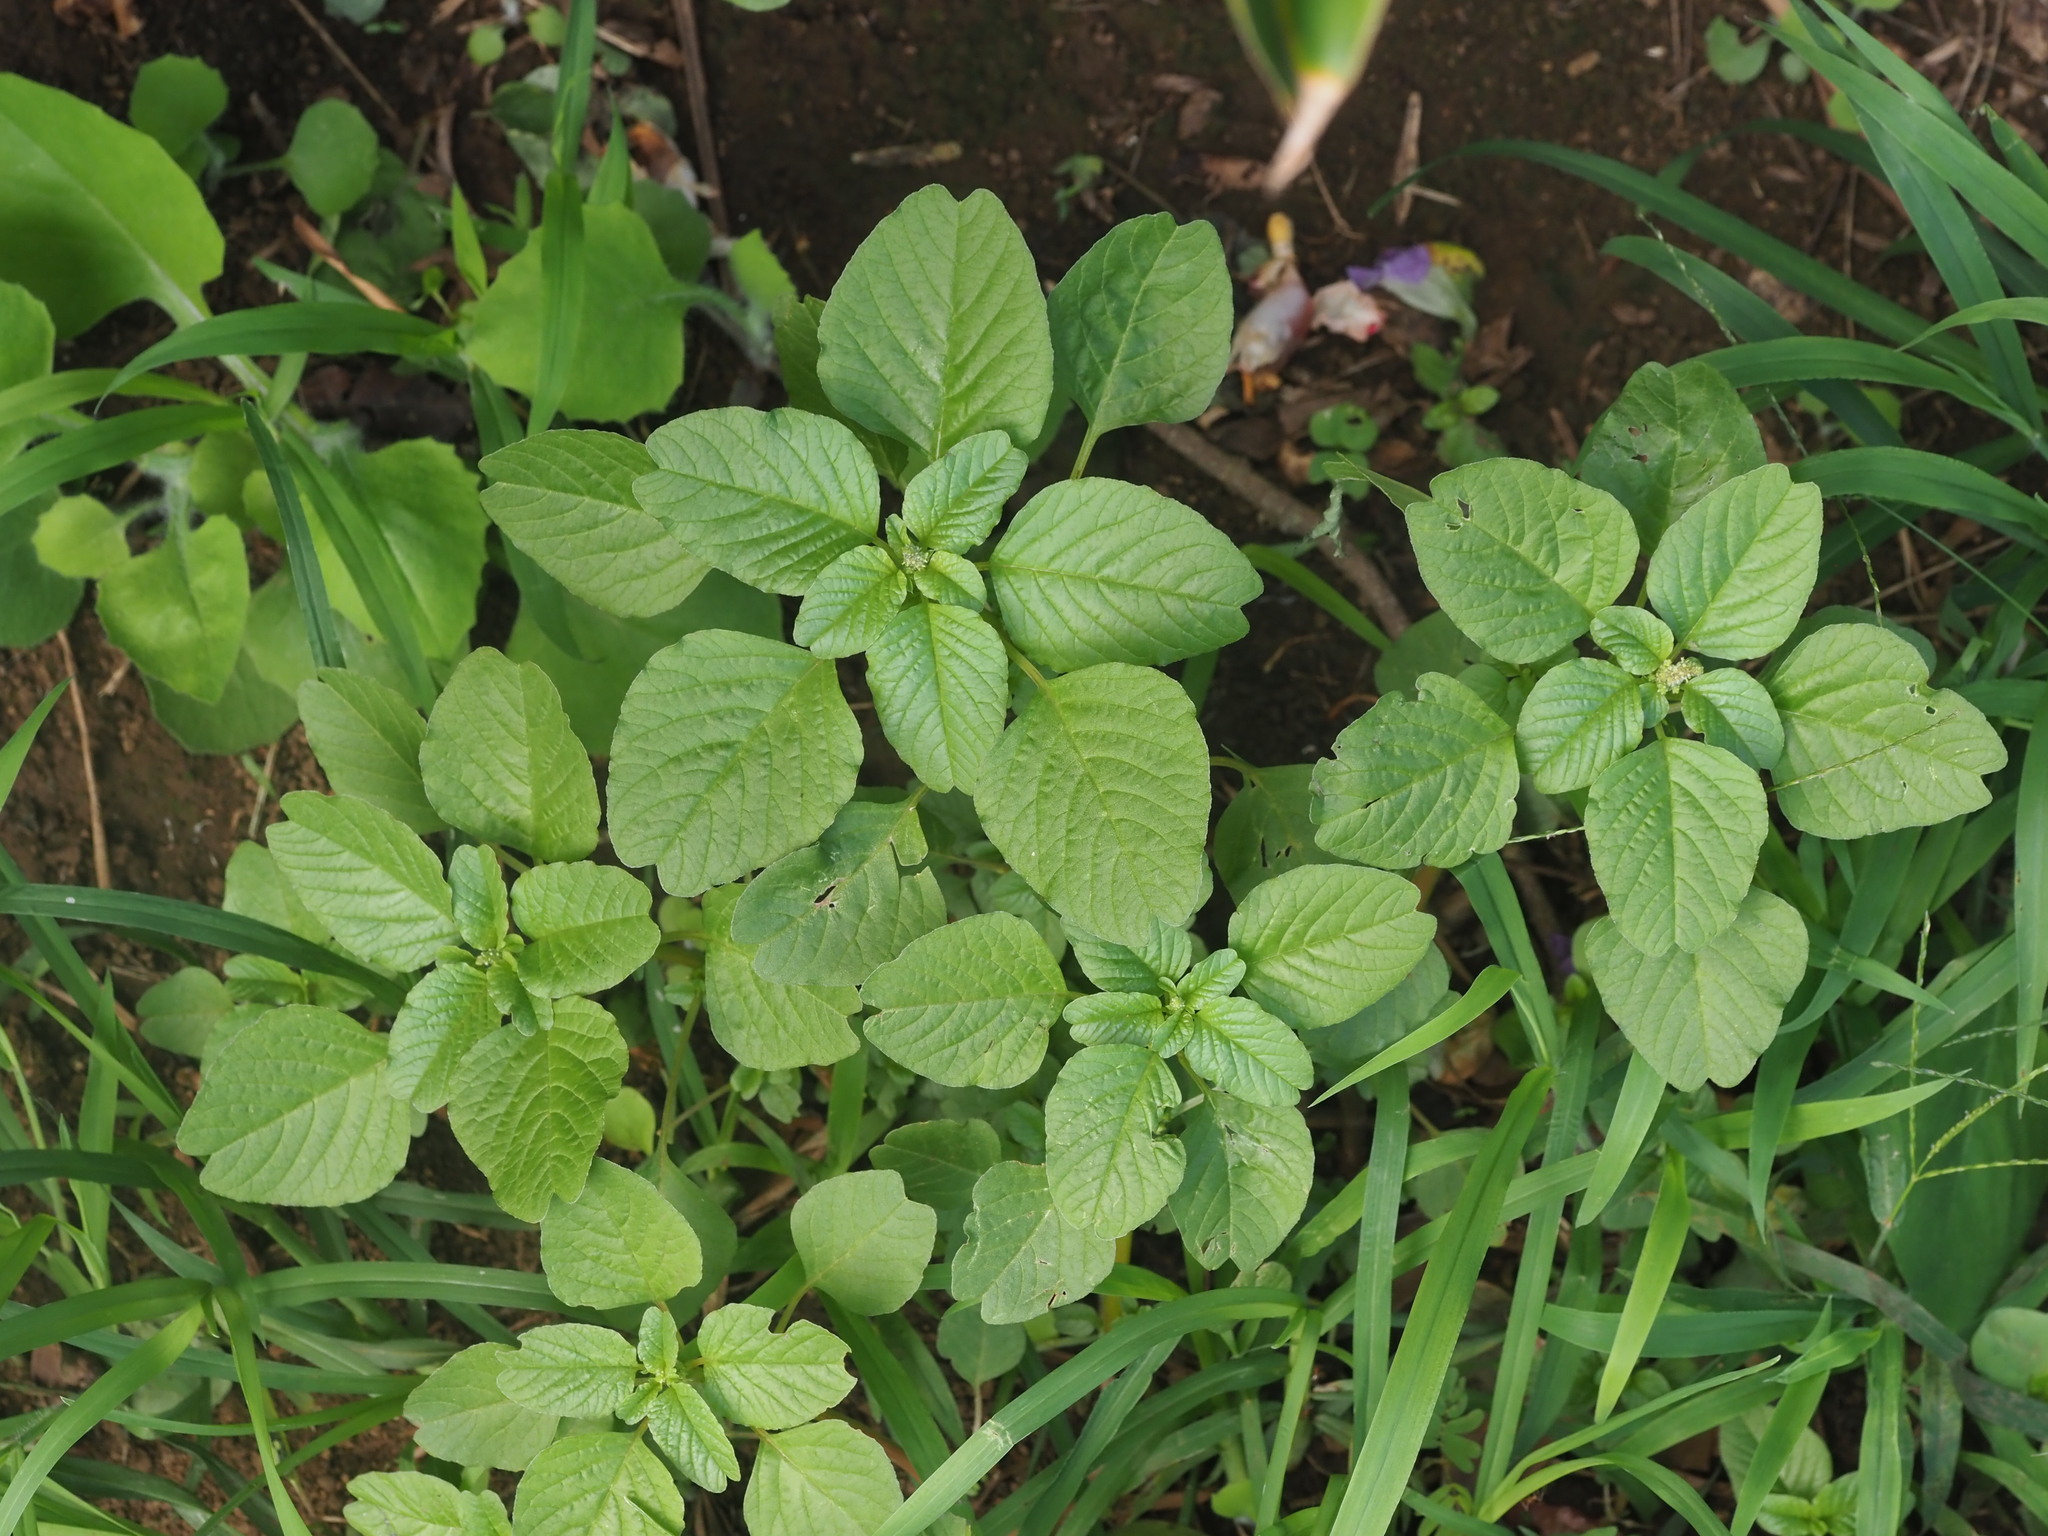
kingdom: Plantae
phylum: Tracheophyta
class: Magnoliopsida
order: Caryophyllales
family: Amaranthaceae
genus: Amaranthus
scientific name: Amaranthus blitum
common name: Purple amaranth
